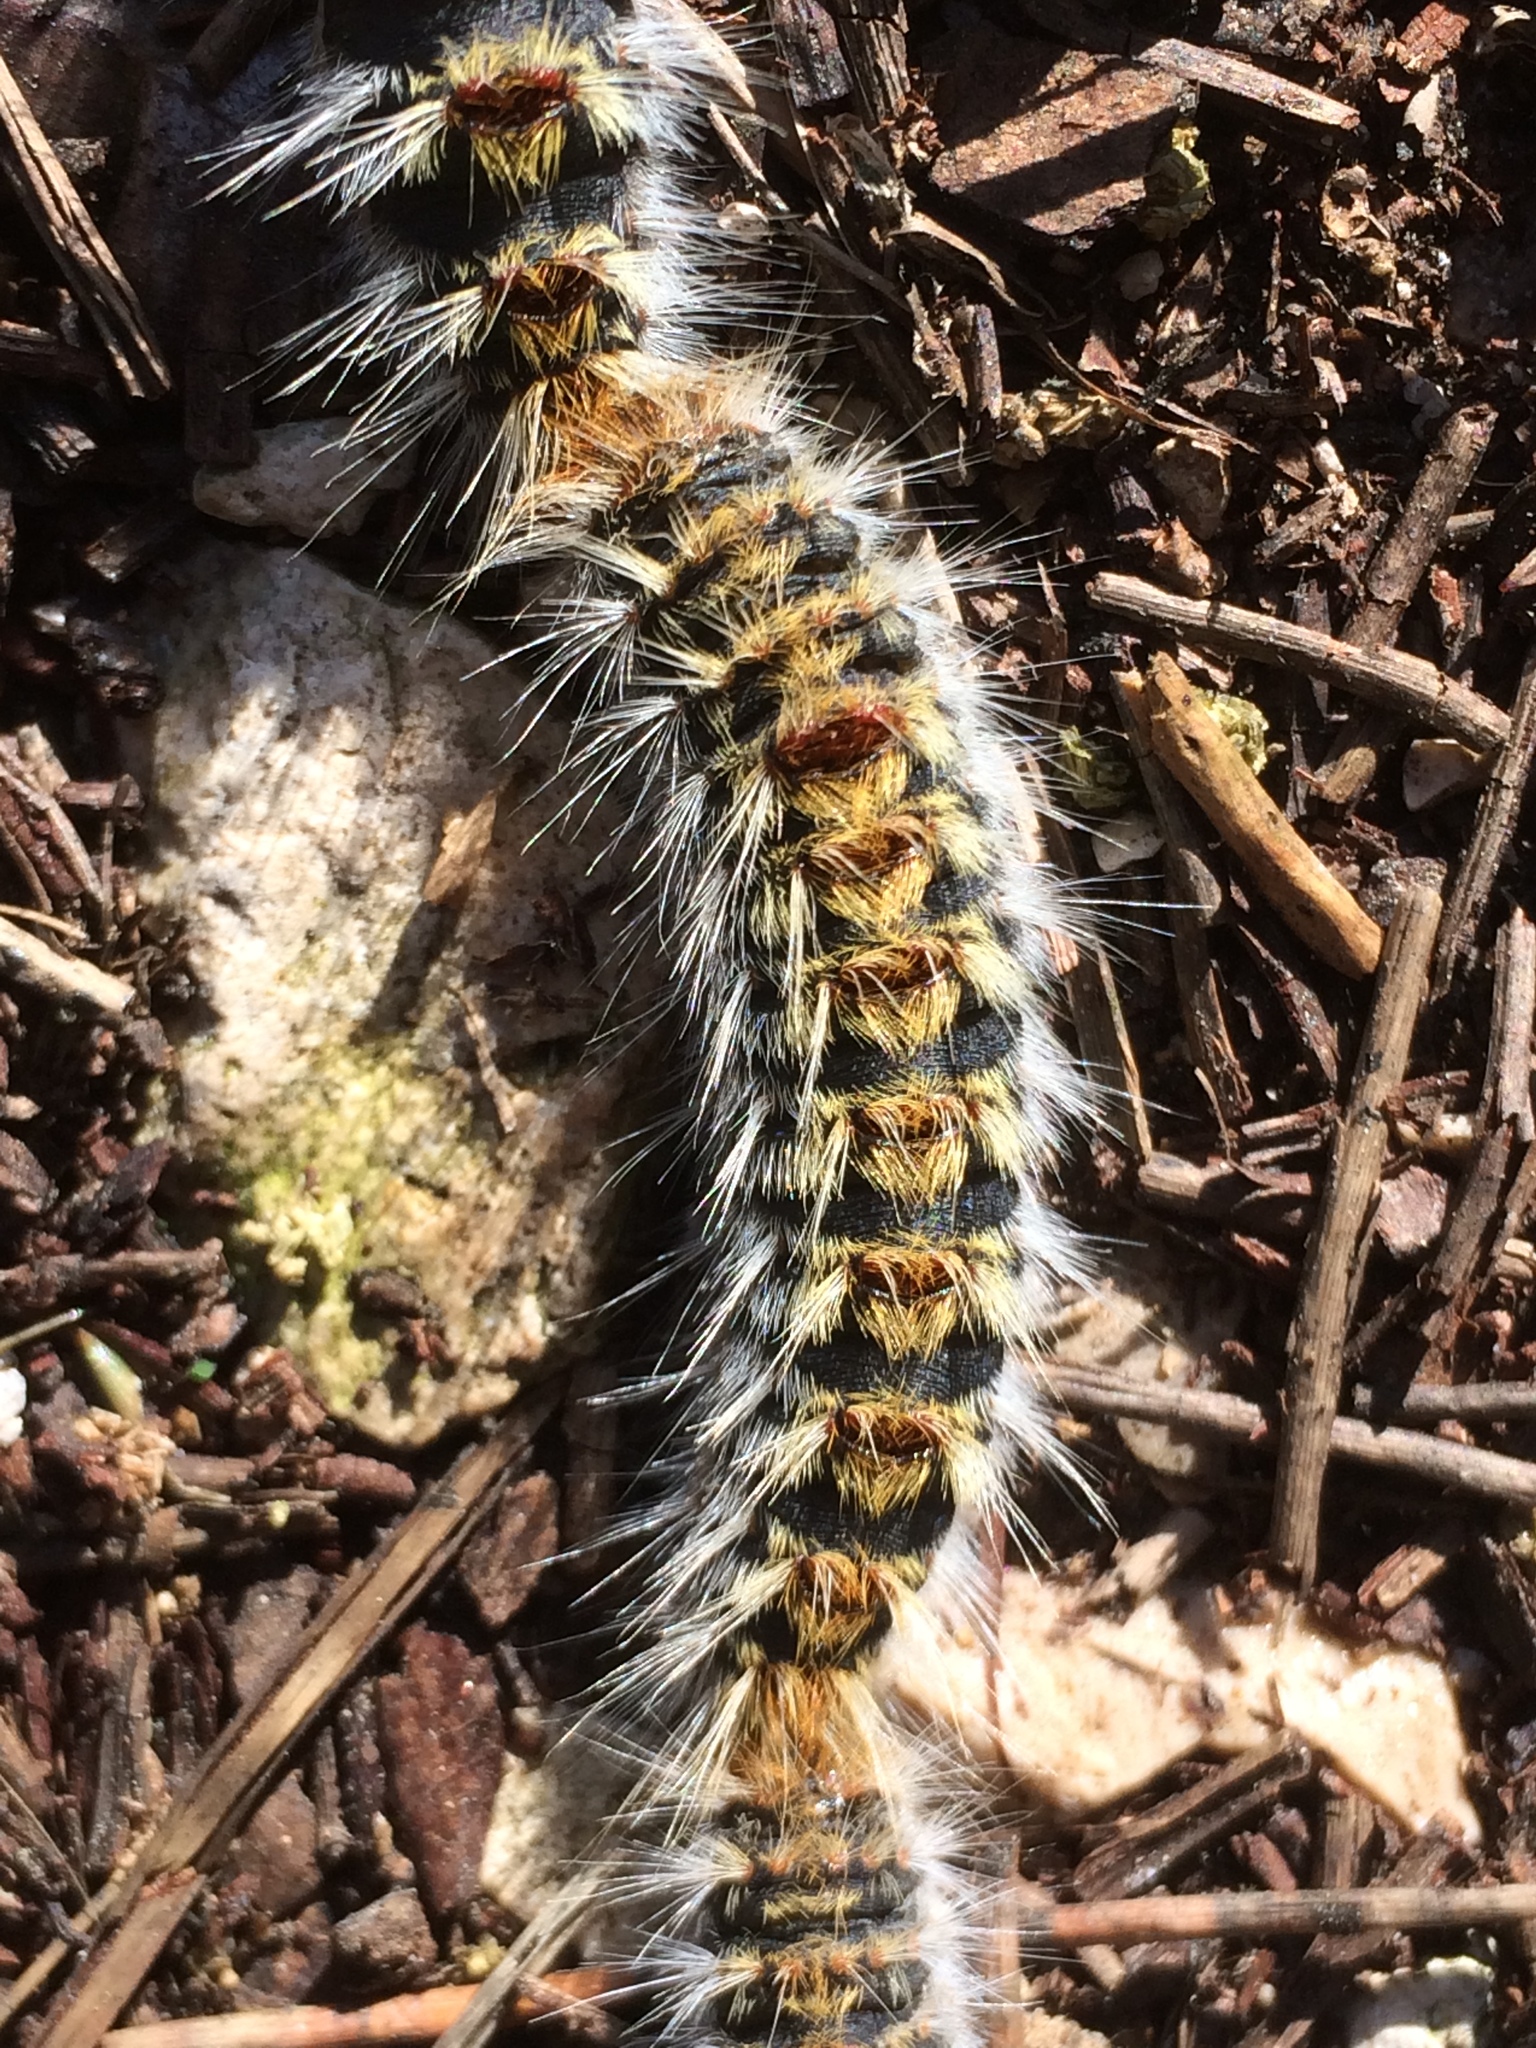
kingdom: Animalia
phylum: Arthropoda
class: Insecta
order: Lepidoptera
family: Notodontidae
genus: Thaumetopoea
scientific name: Thaumetopoea pityocampa
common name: Pine processionary
